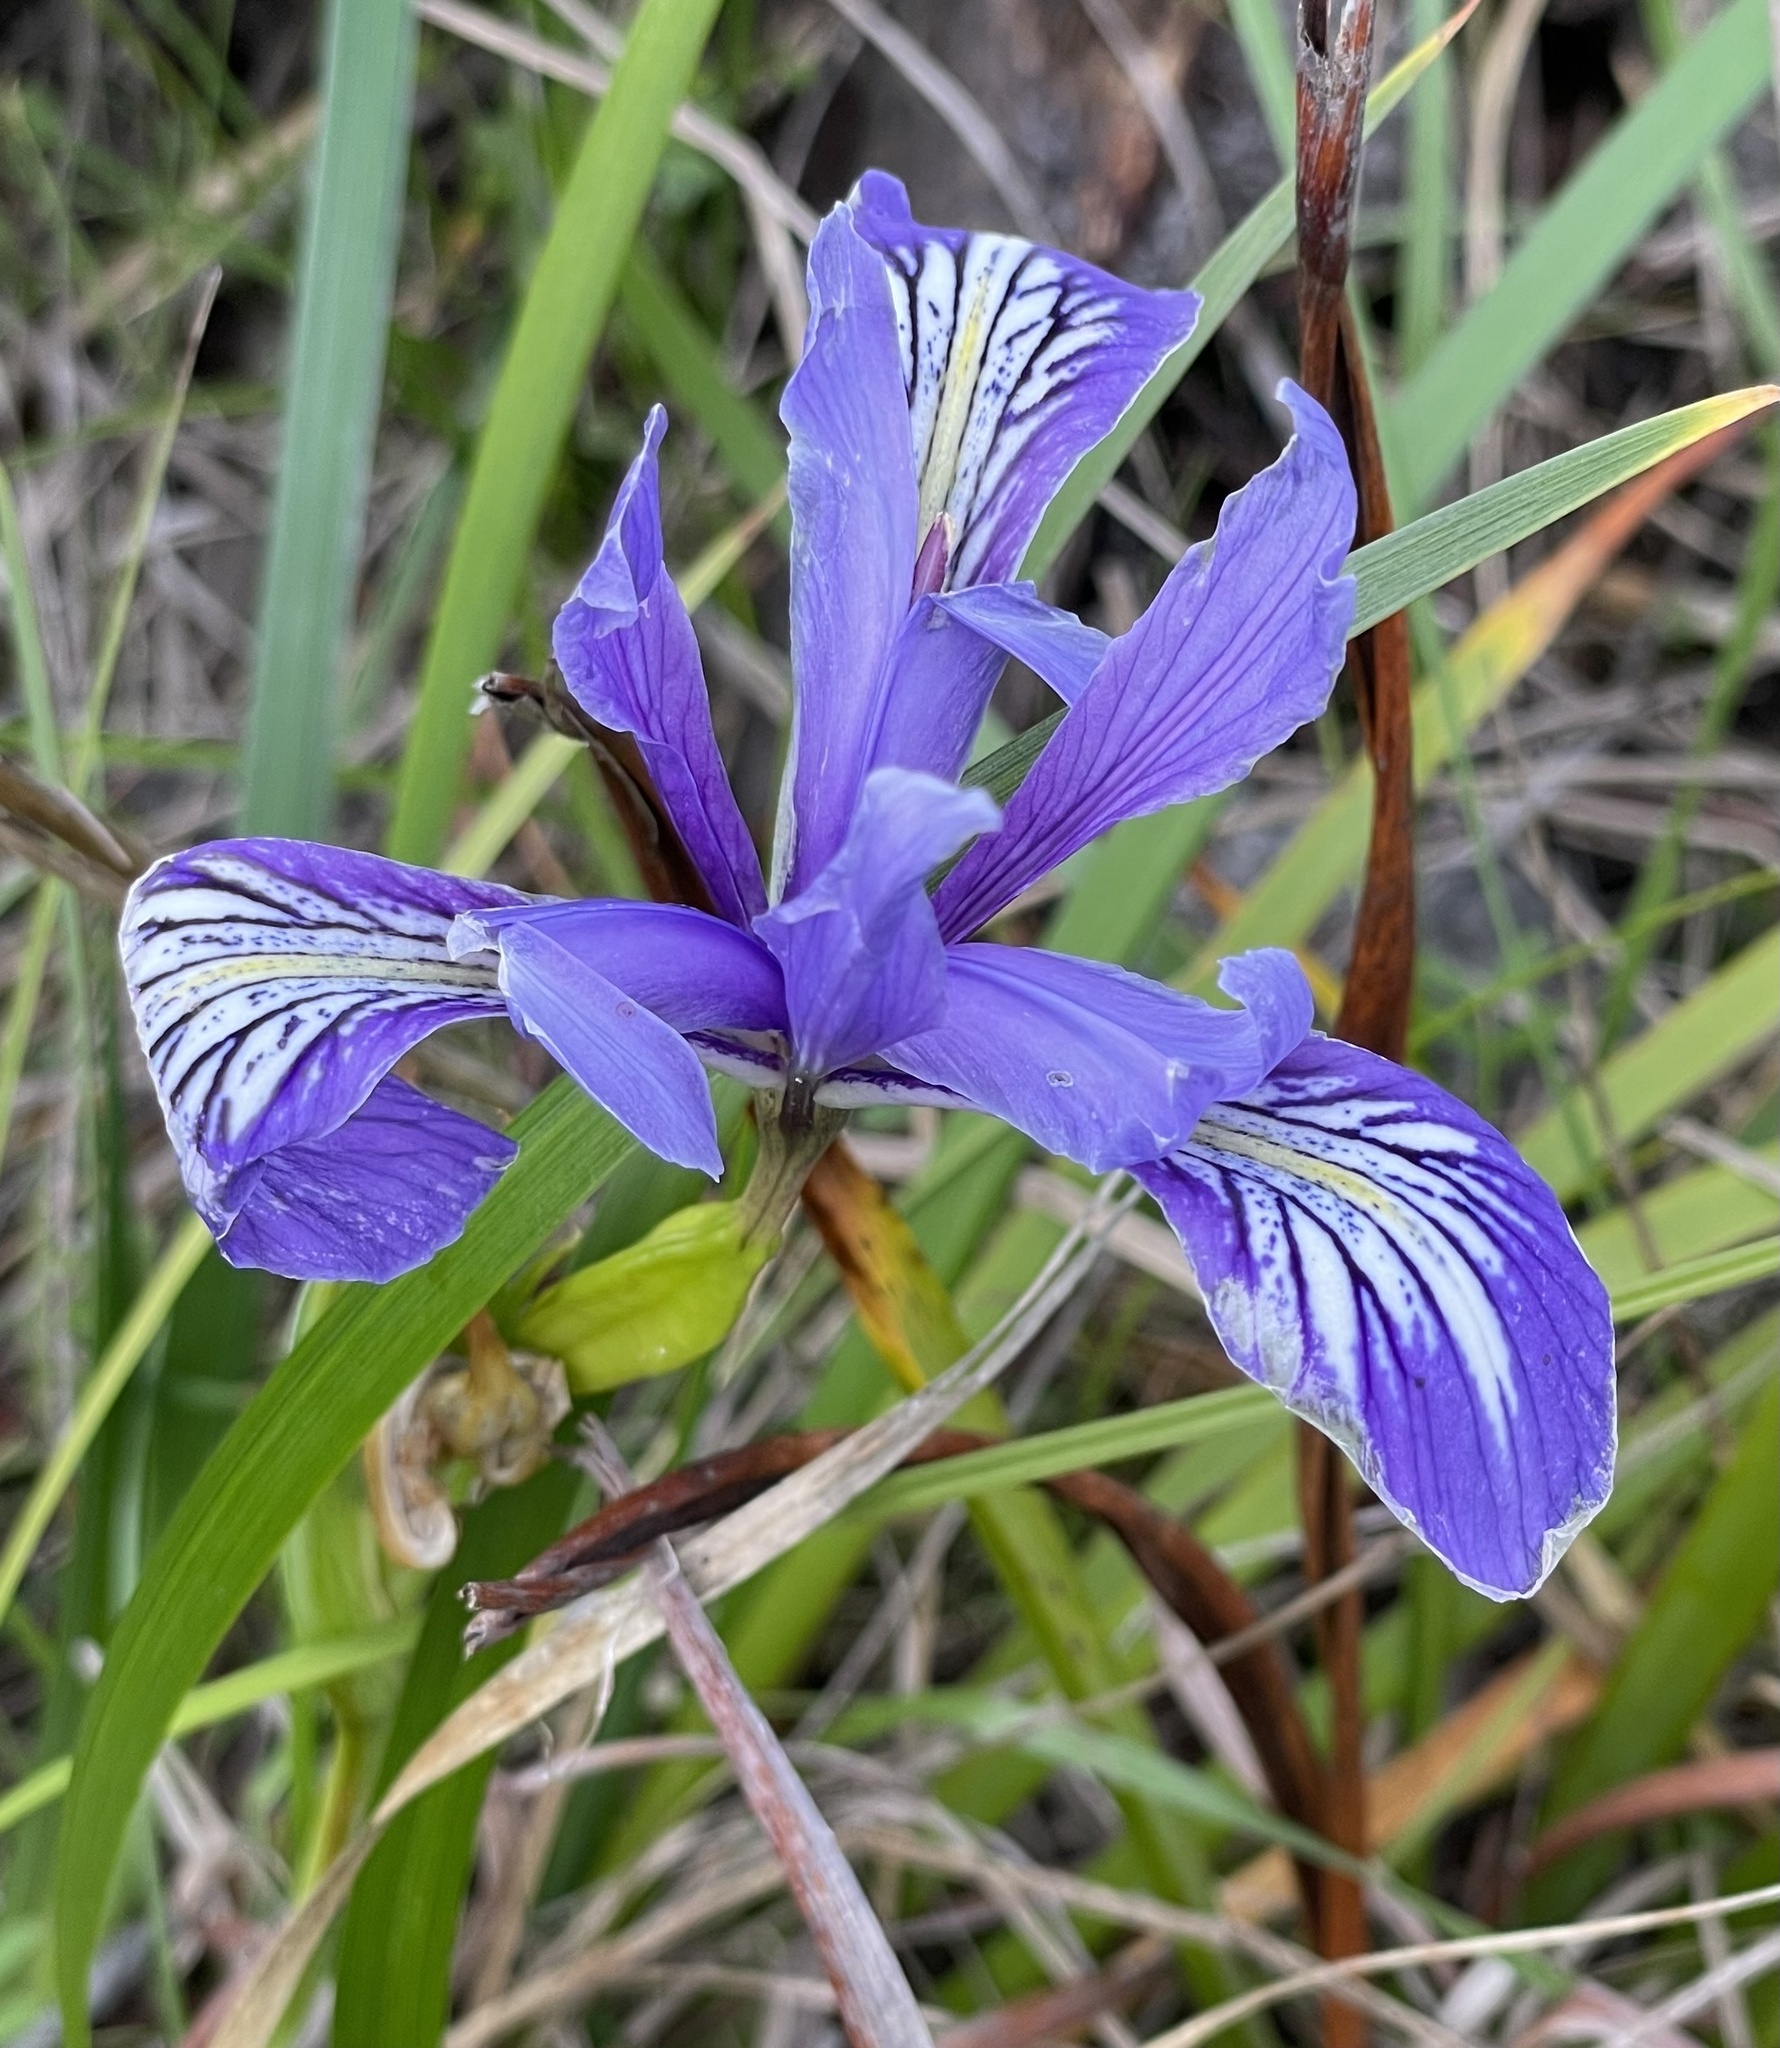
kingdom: Plantae
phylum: Tracheophyta
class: Liliopsida
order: Asparagales
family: Iridaceae
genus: Iris
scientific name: Iris douglasiana
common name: Marin iris
